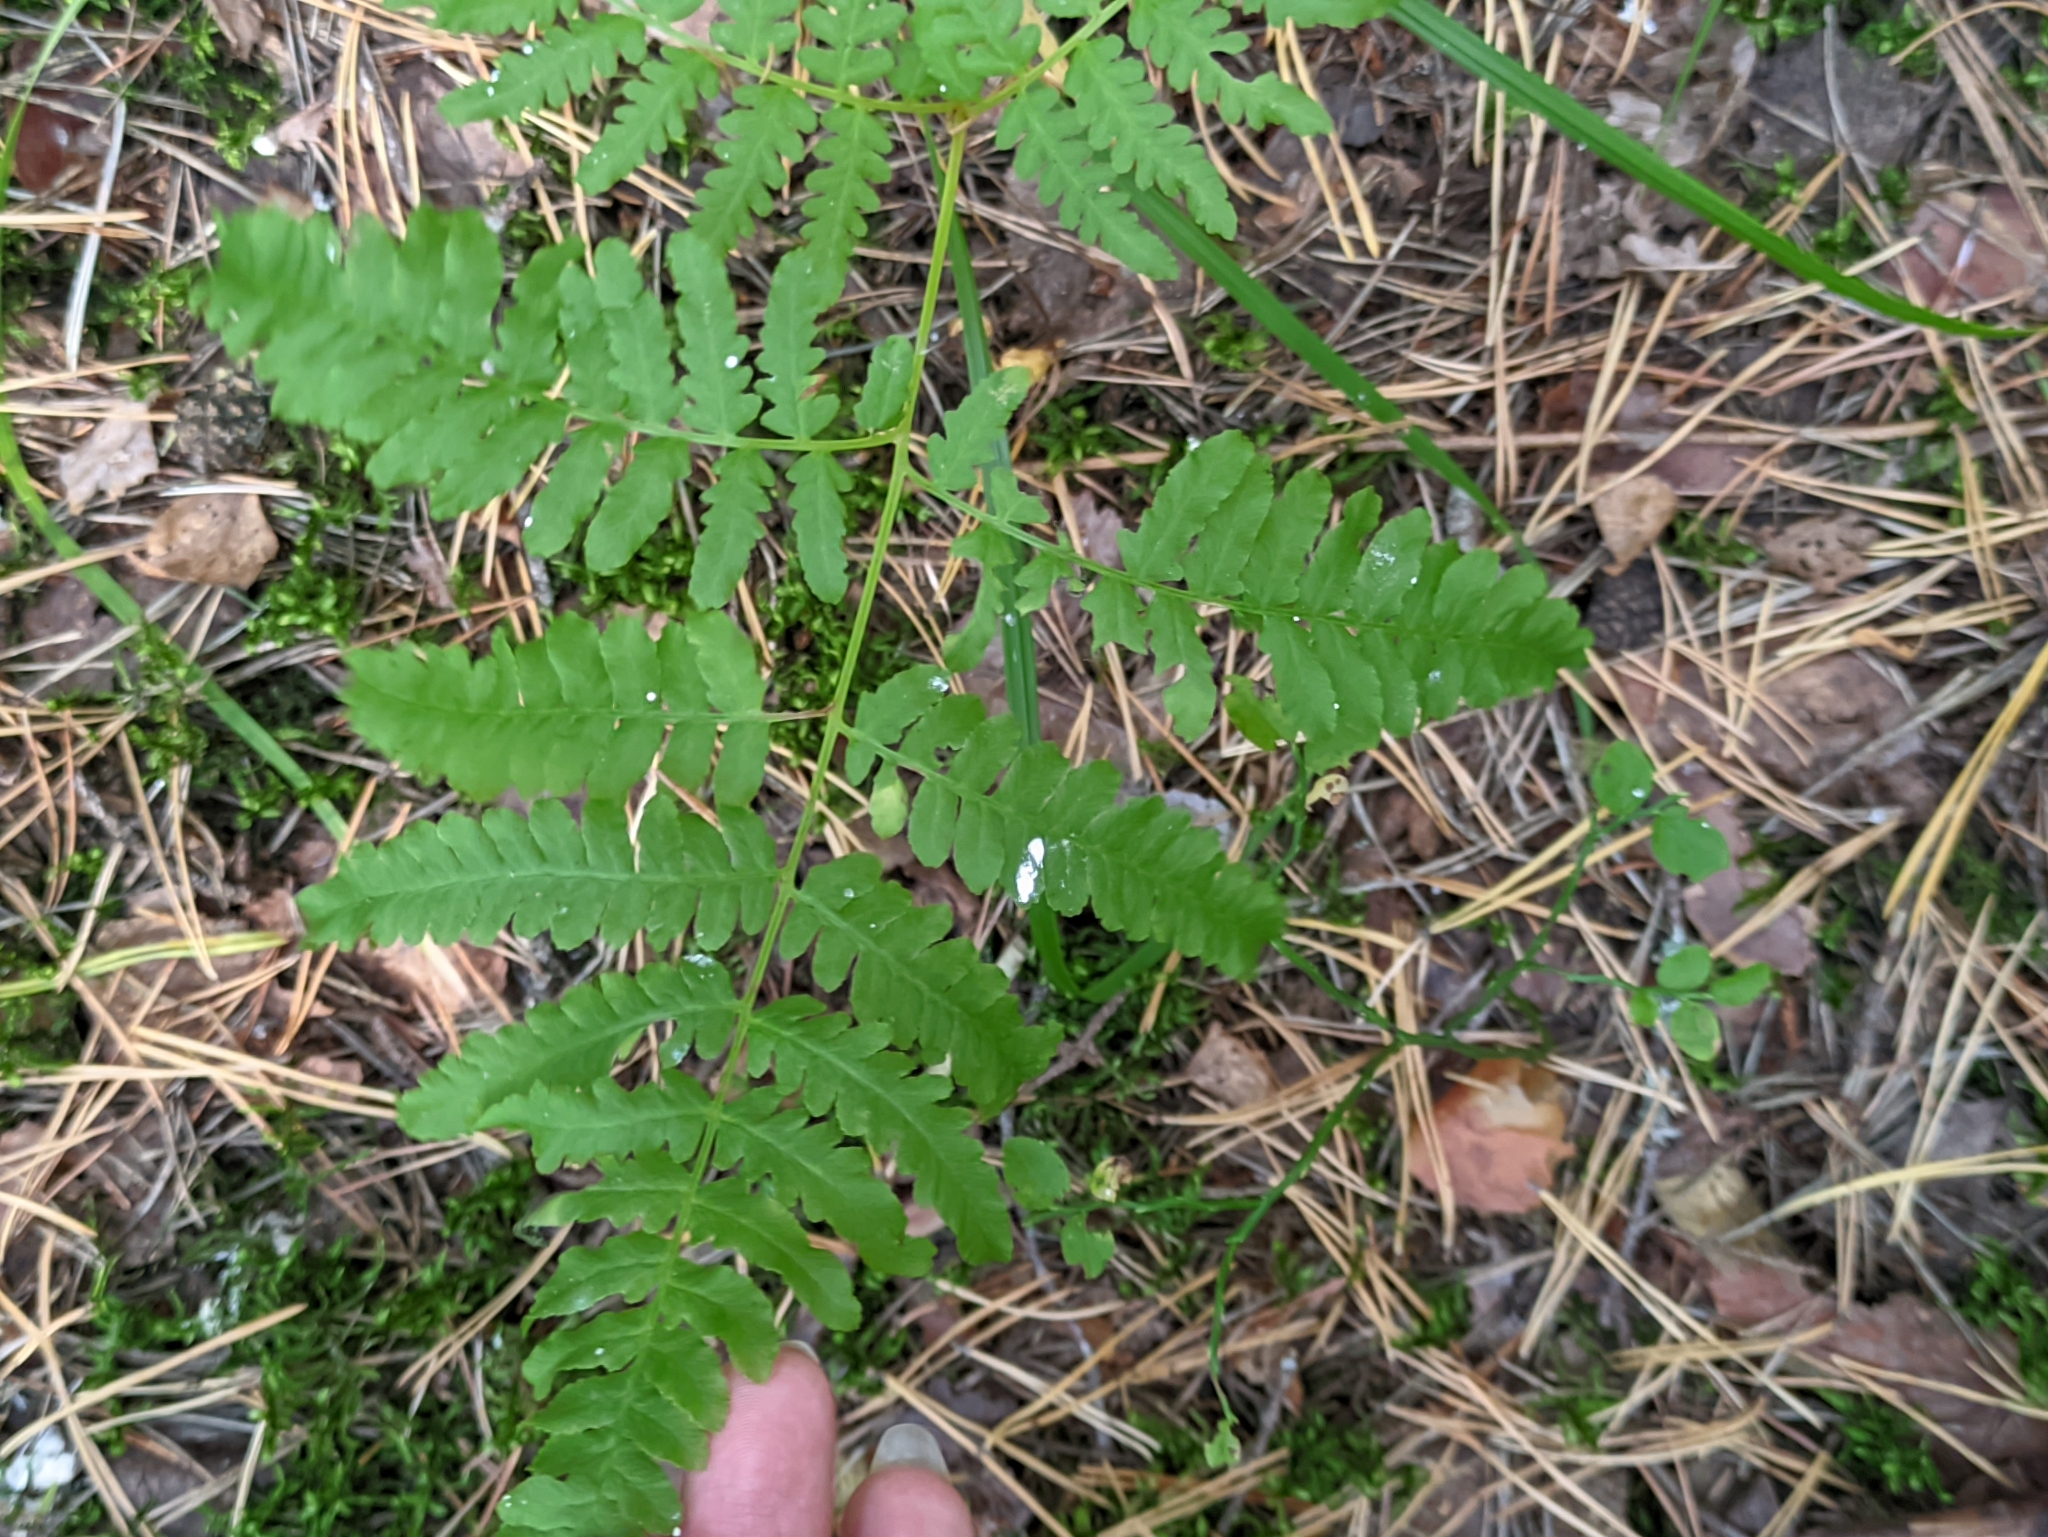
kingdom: Plantae
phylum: Tracheophyta
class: Polypodiopsida
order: Polypodiales
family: Dennstaedtiaceae
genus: Pteridium
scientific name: Pteridium aquilinum
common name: Bracken
